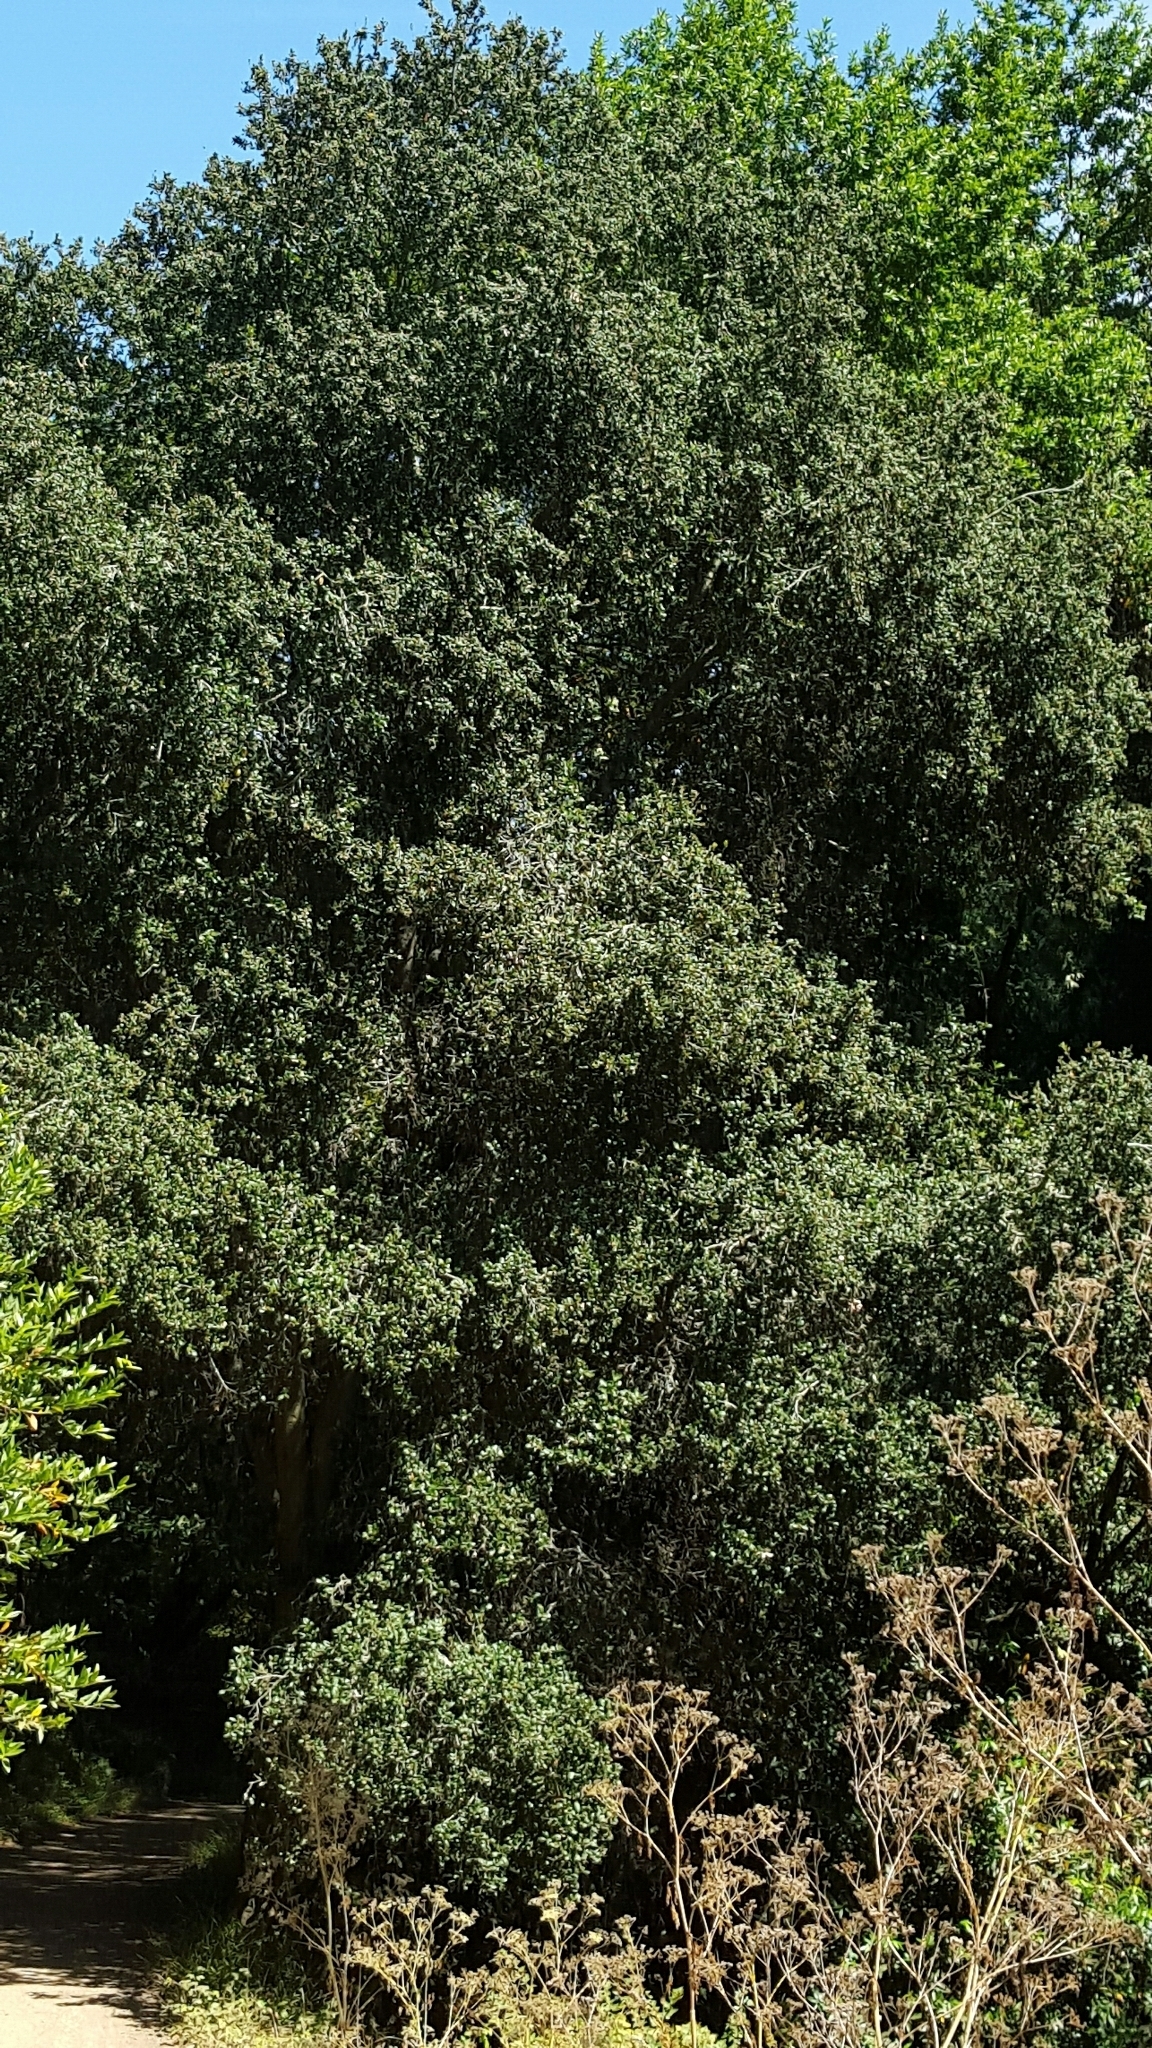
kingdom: Plantae
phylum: Tracheophyta
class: Magnoliopsida
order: Fagales
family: Fagaceae
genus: Quercus
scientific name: Quercus agrifolia
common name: California live oak
